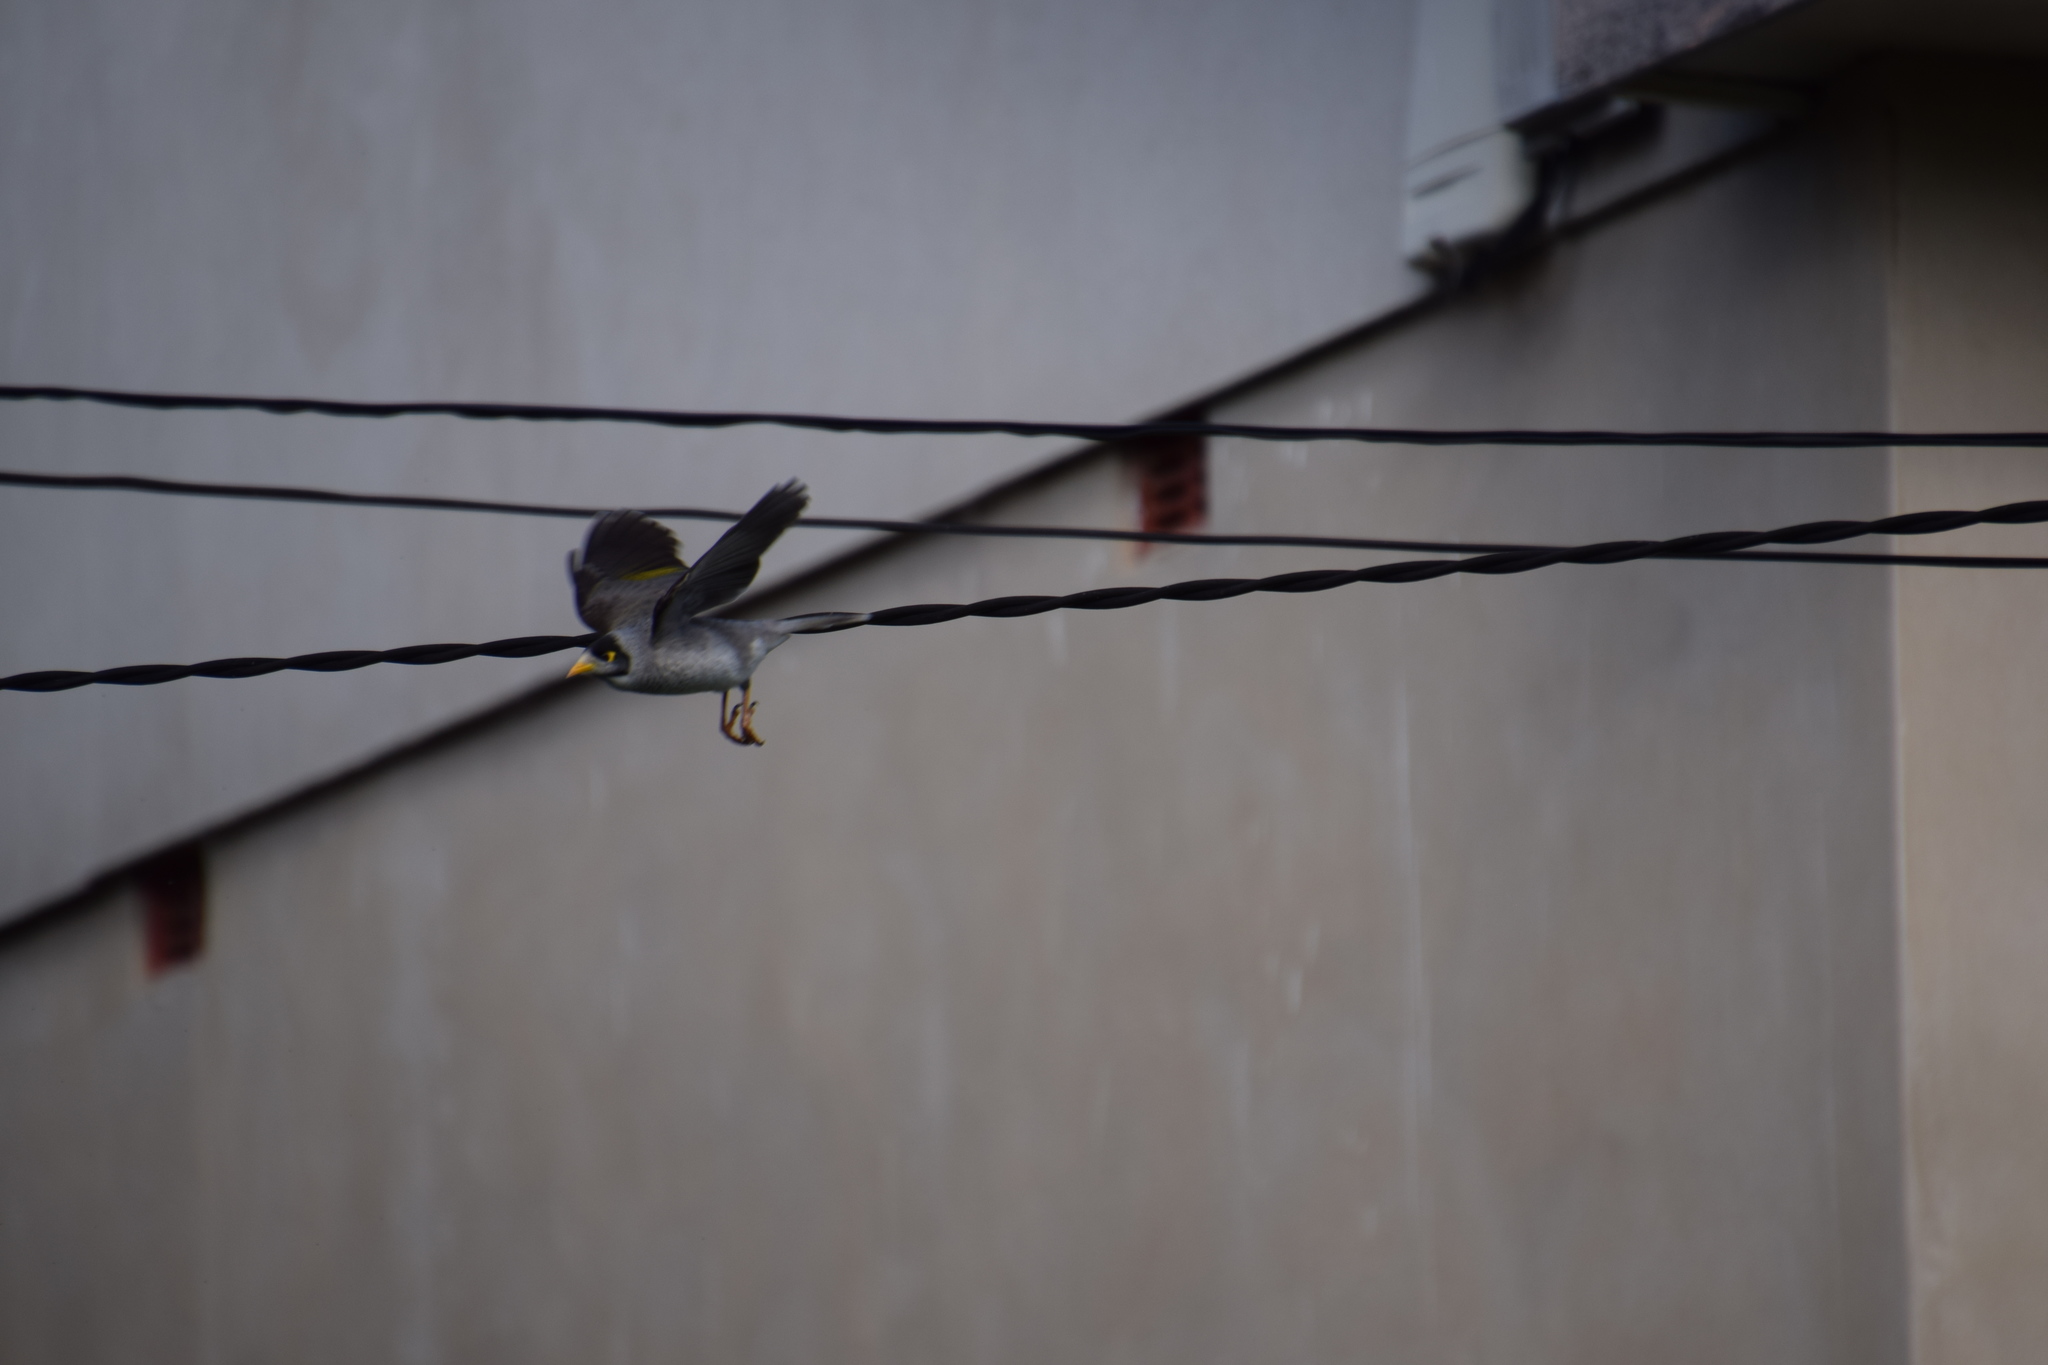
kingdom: Animalia
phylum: Chordata
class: Aves
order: Passeriformes
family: Meliphagidae
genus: Manorina
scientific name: Manorina melanocephala
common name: Noisy miner
